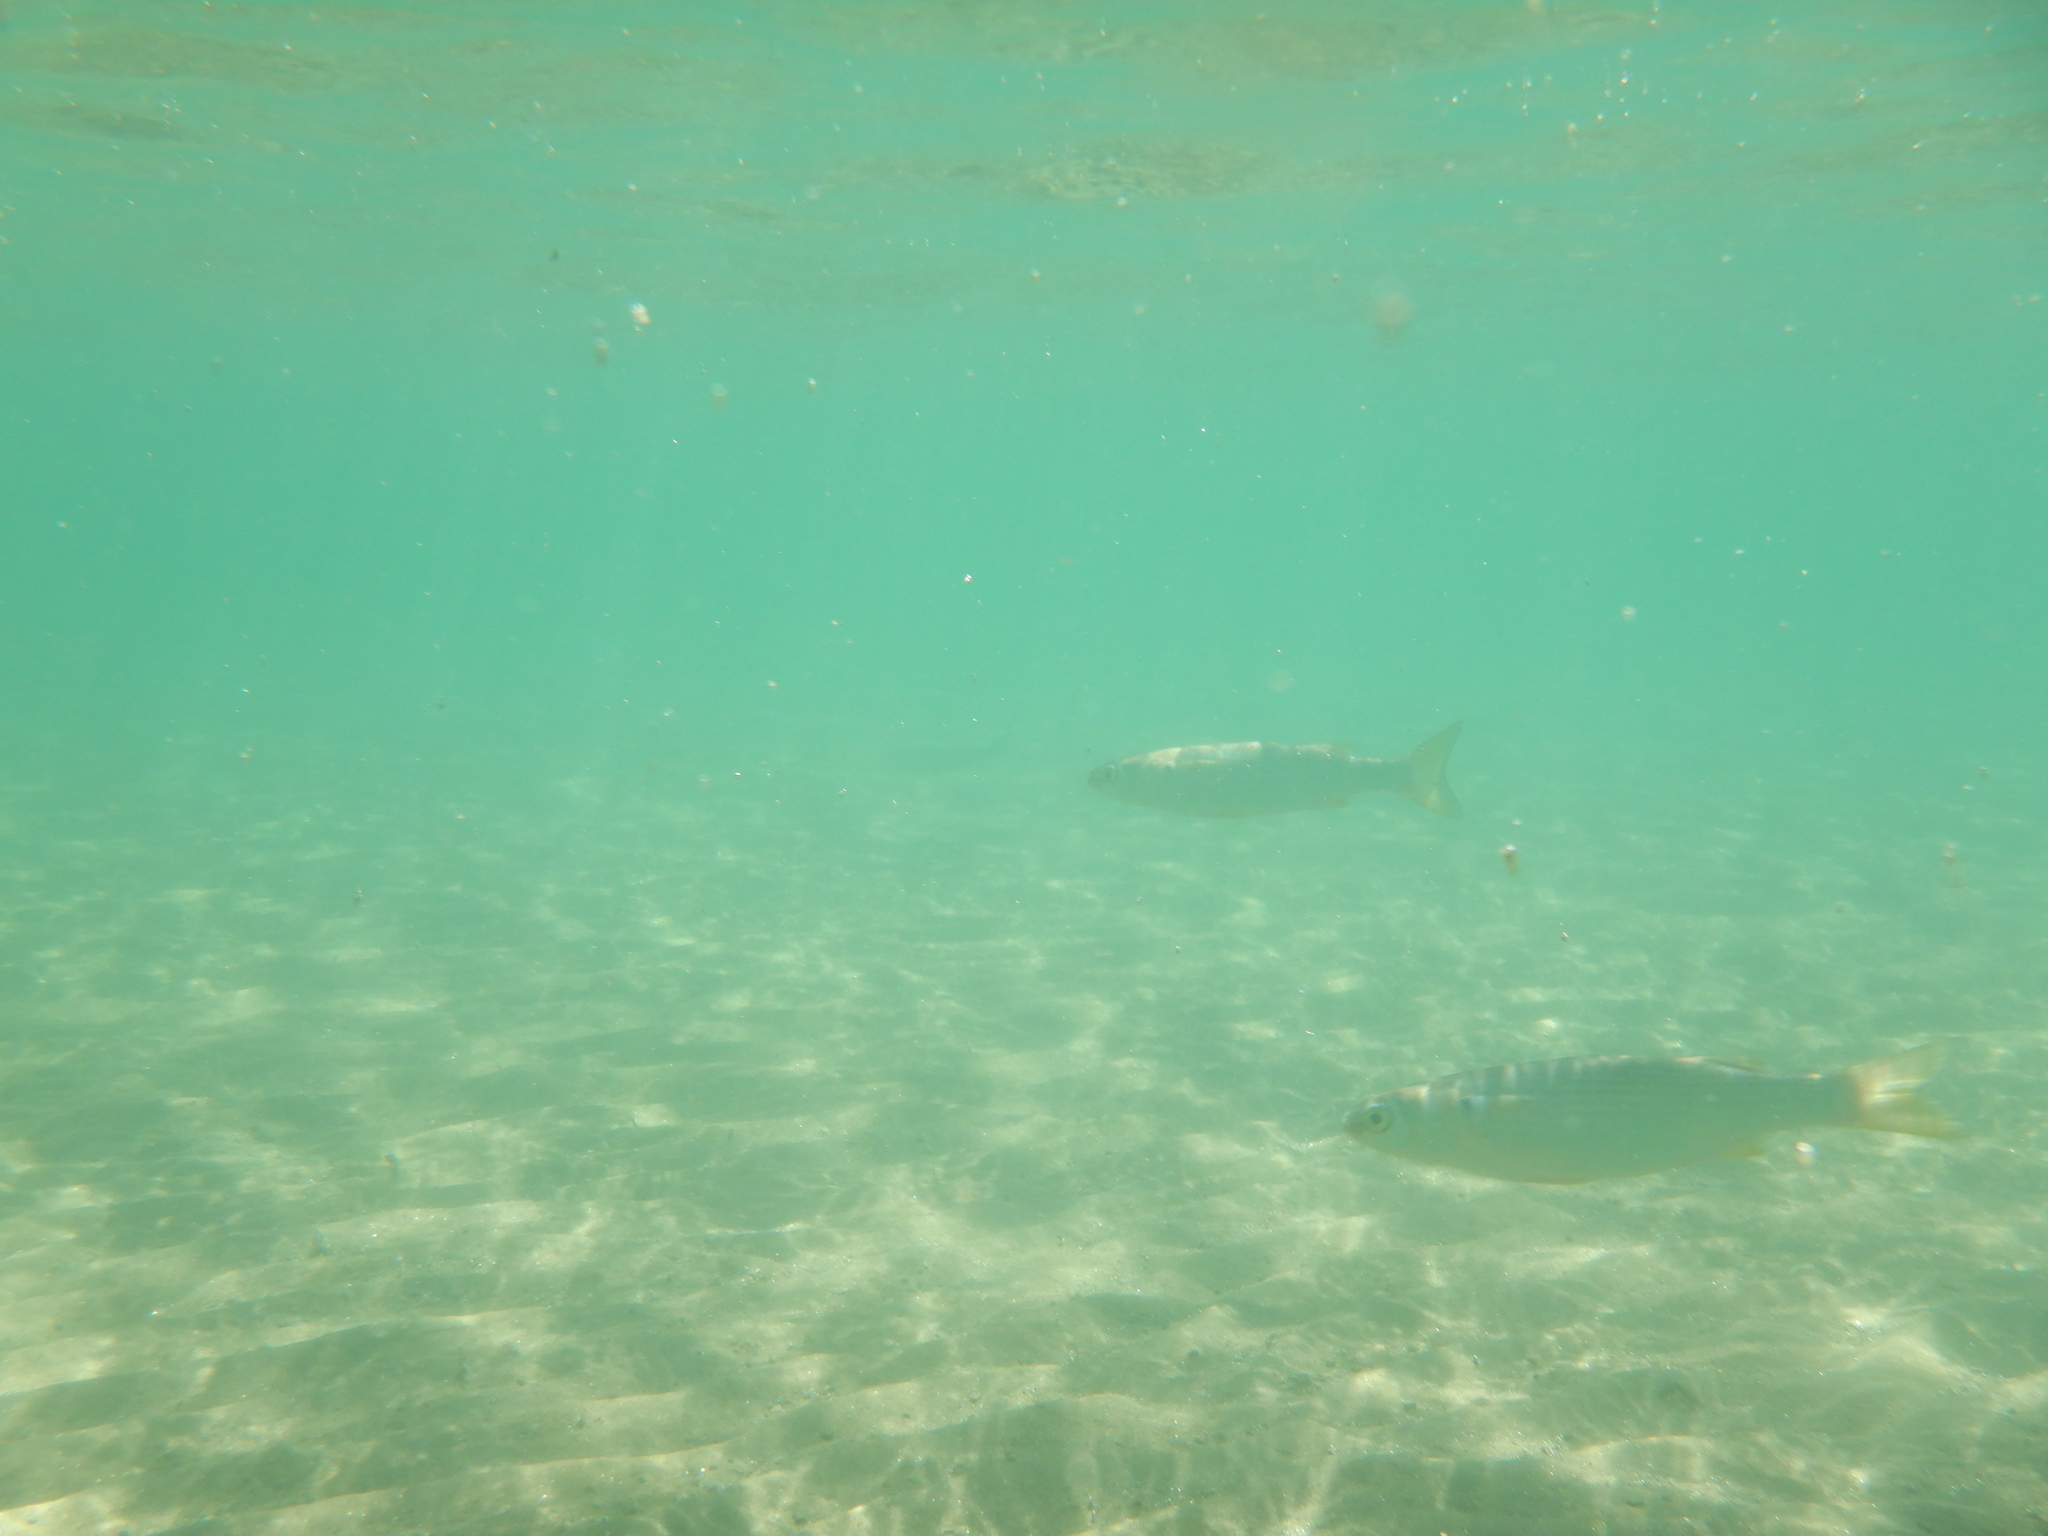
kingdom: Animalia
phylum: Chordata
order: Mugiliformes
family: Mugilidae
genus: Mugil
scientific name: Mugil cephalus
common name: Grey mullet
